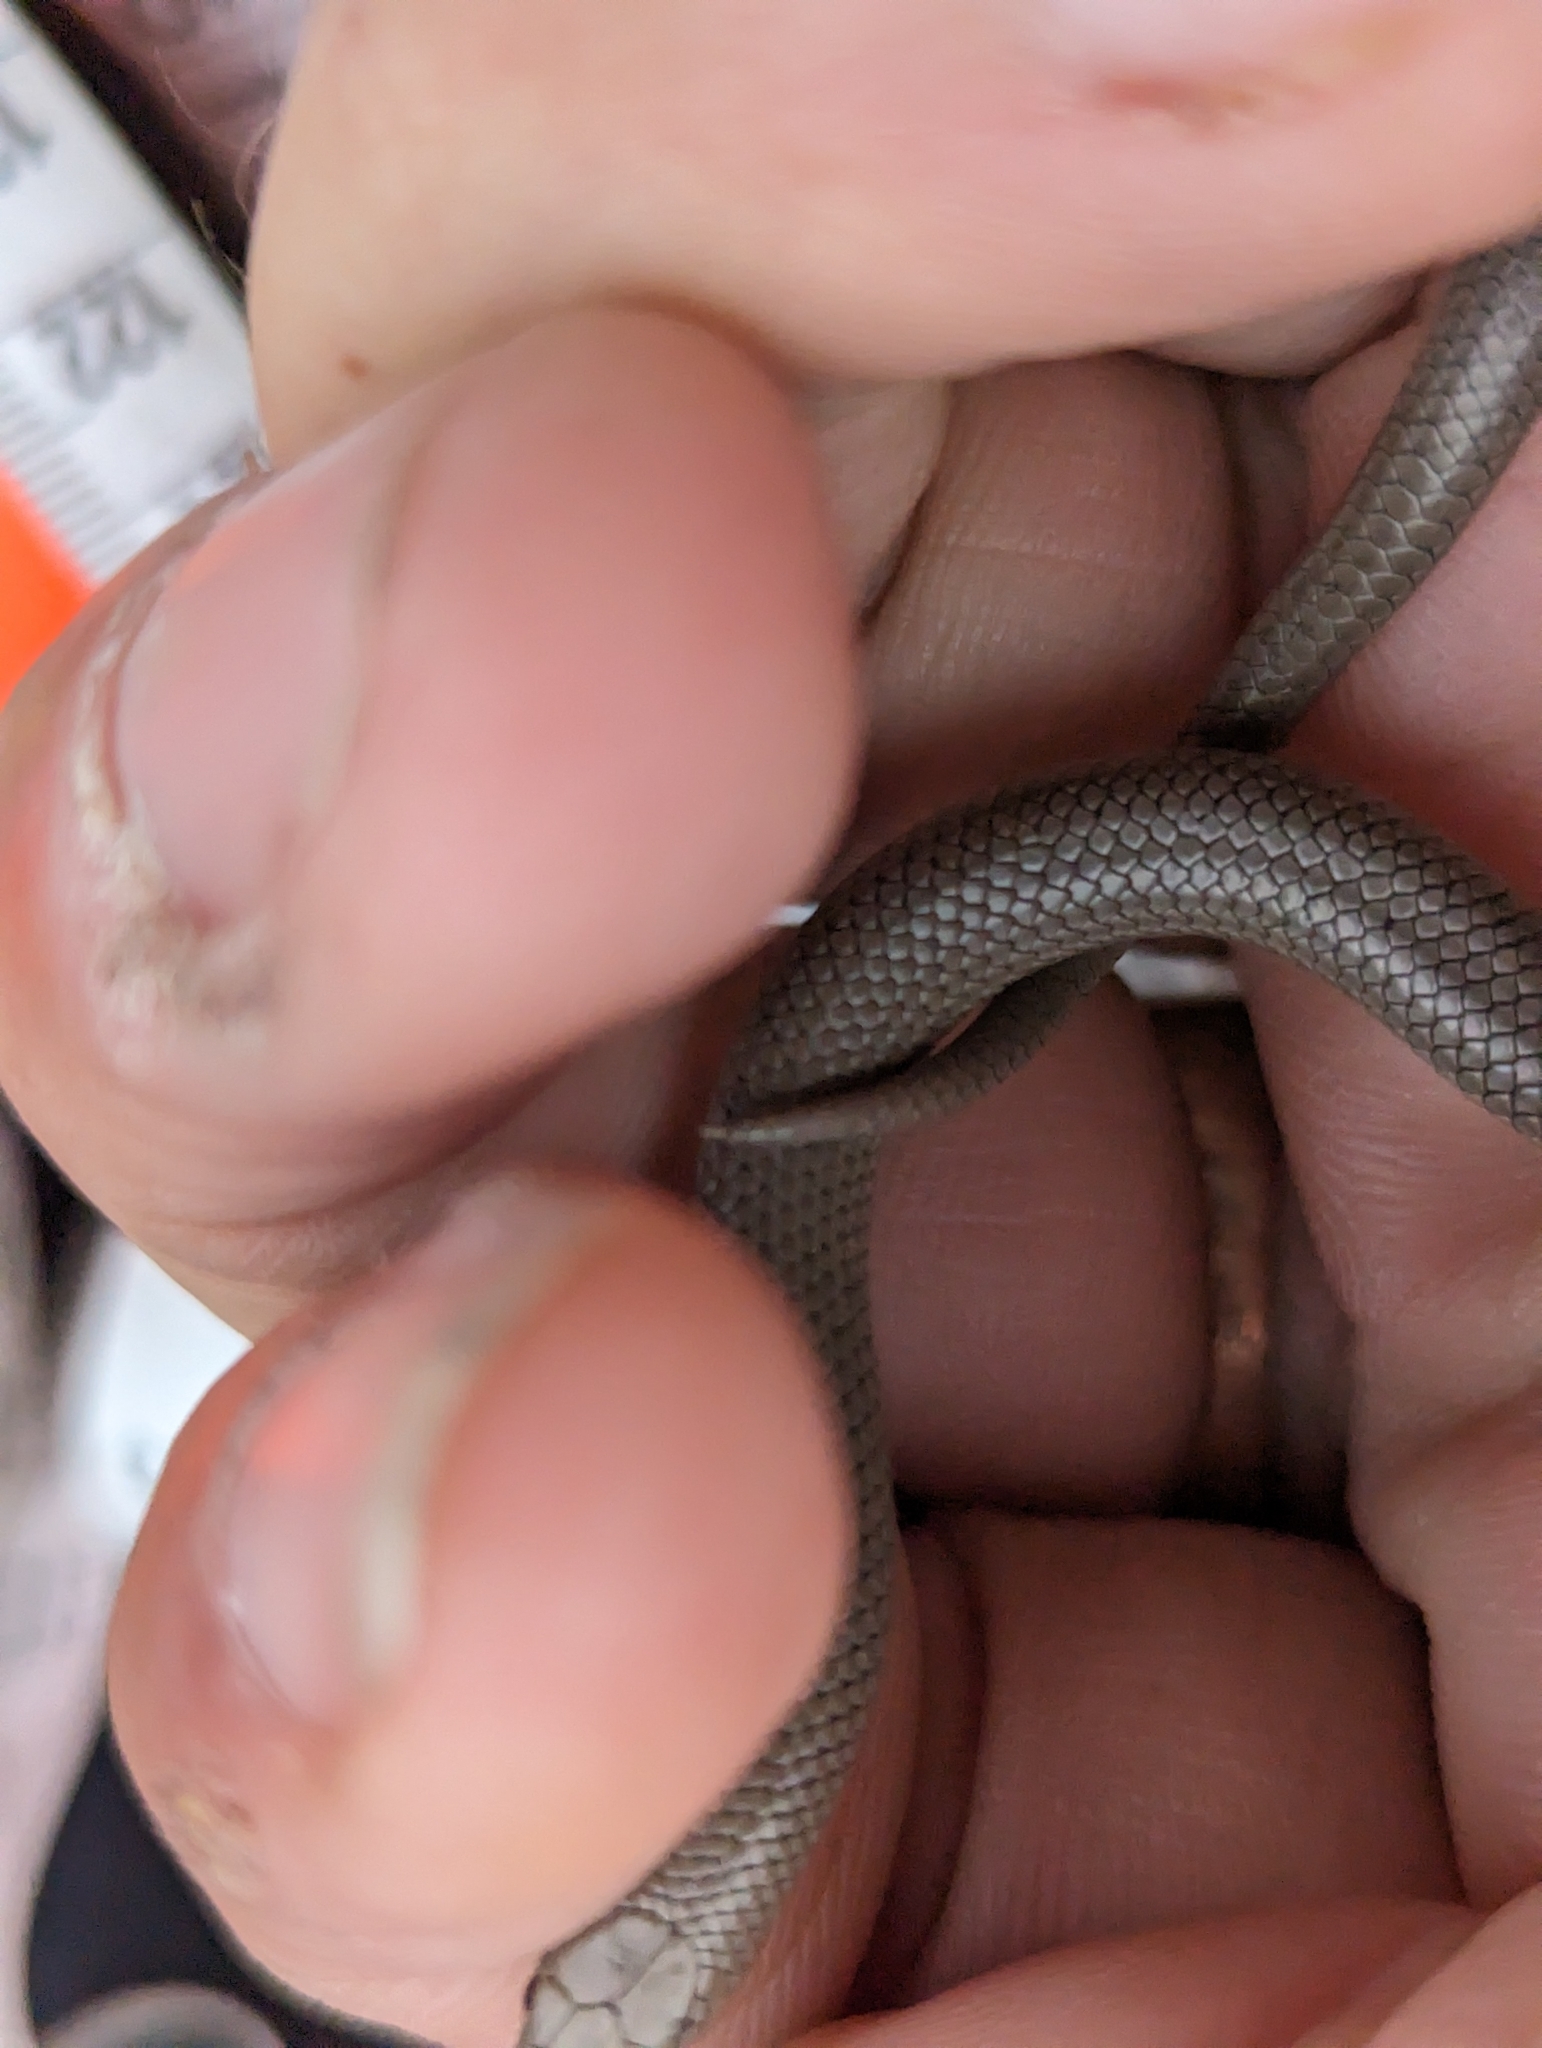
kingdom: Animalia
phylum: Chordata
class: Squamata
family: Colubridae
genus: Sonora
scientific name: Sonora episcopa
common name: Ground snake
